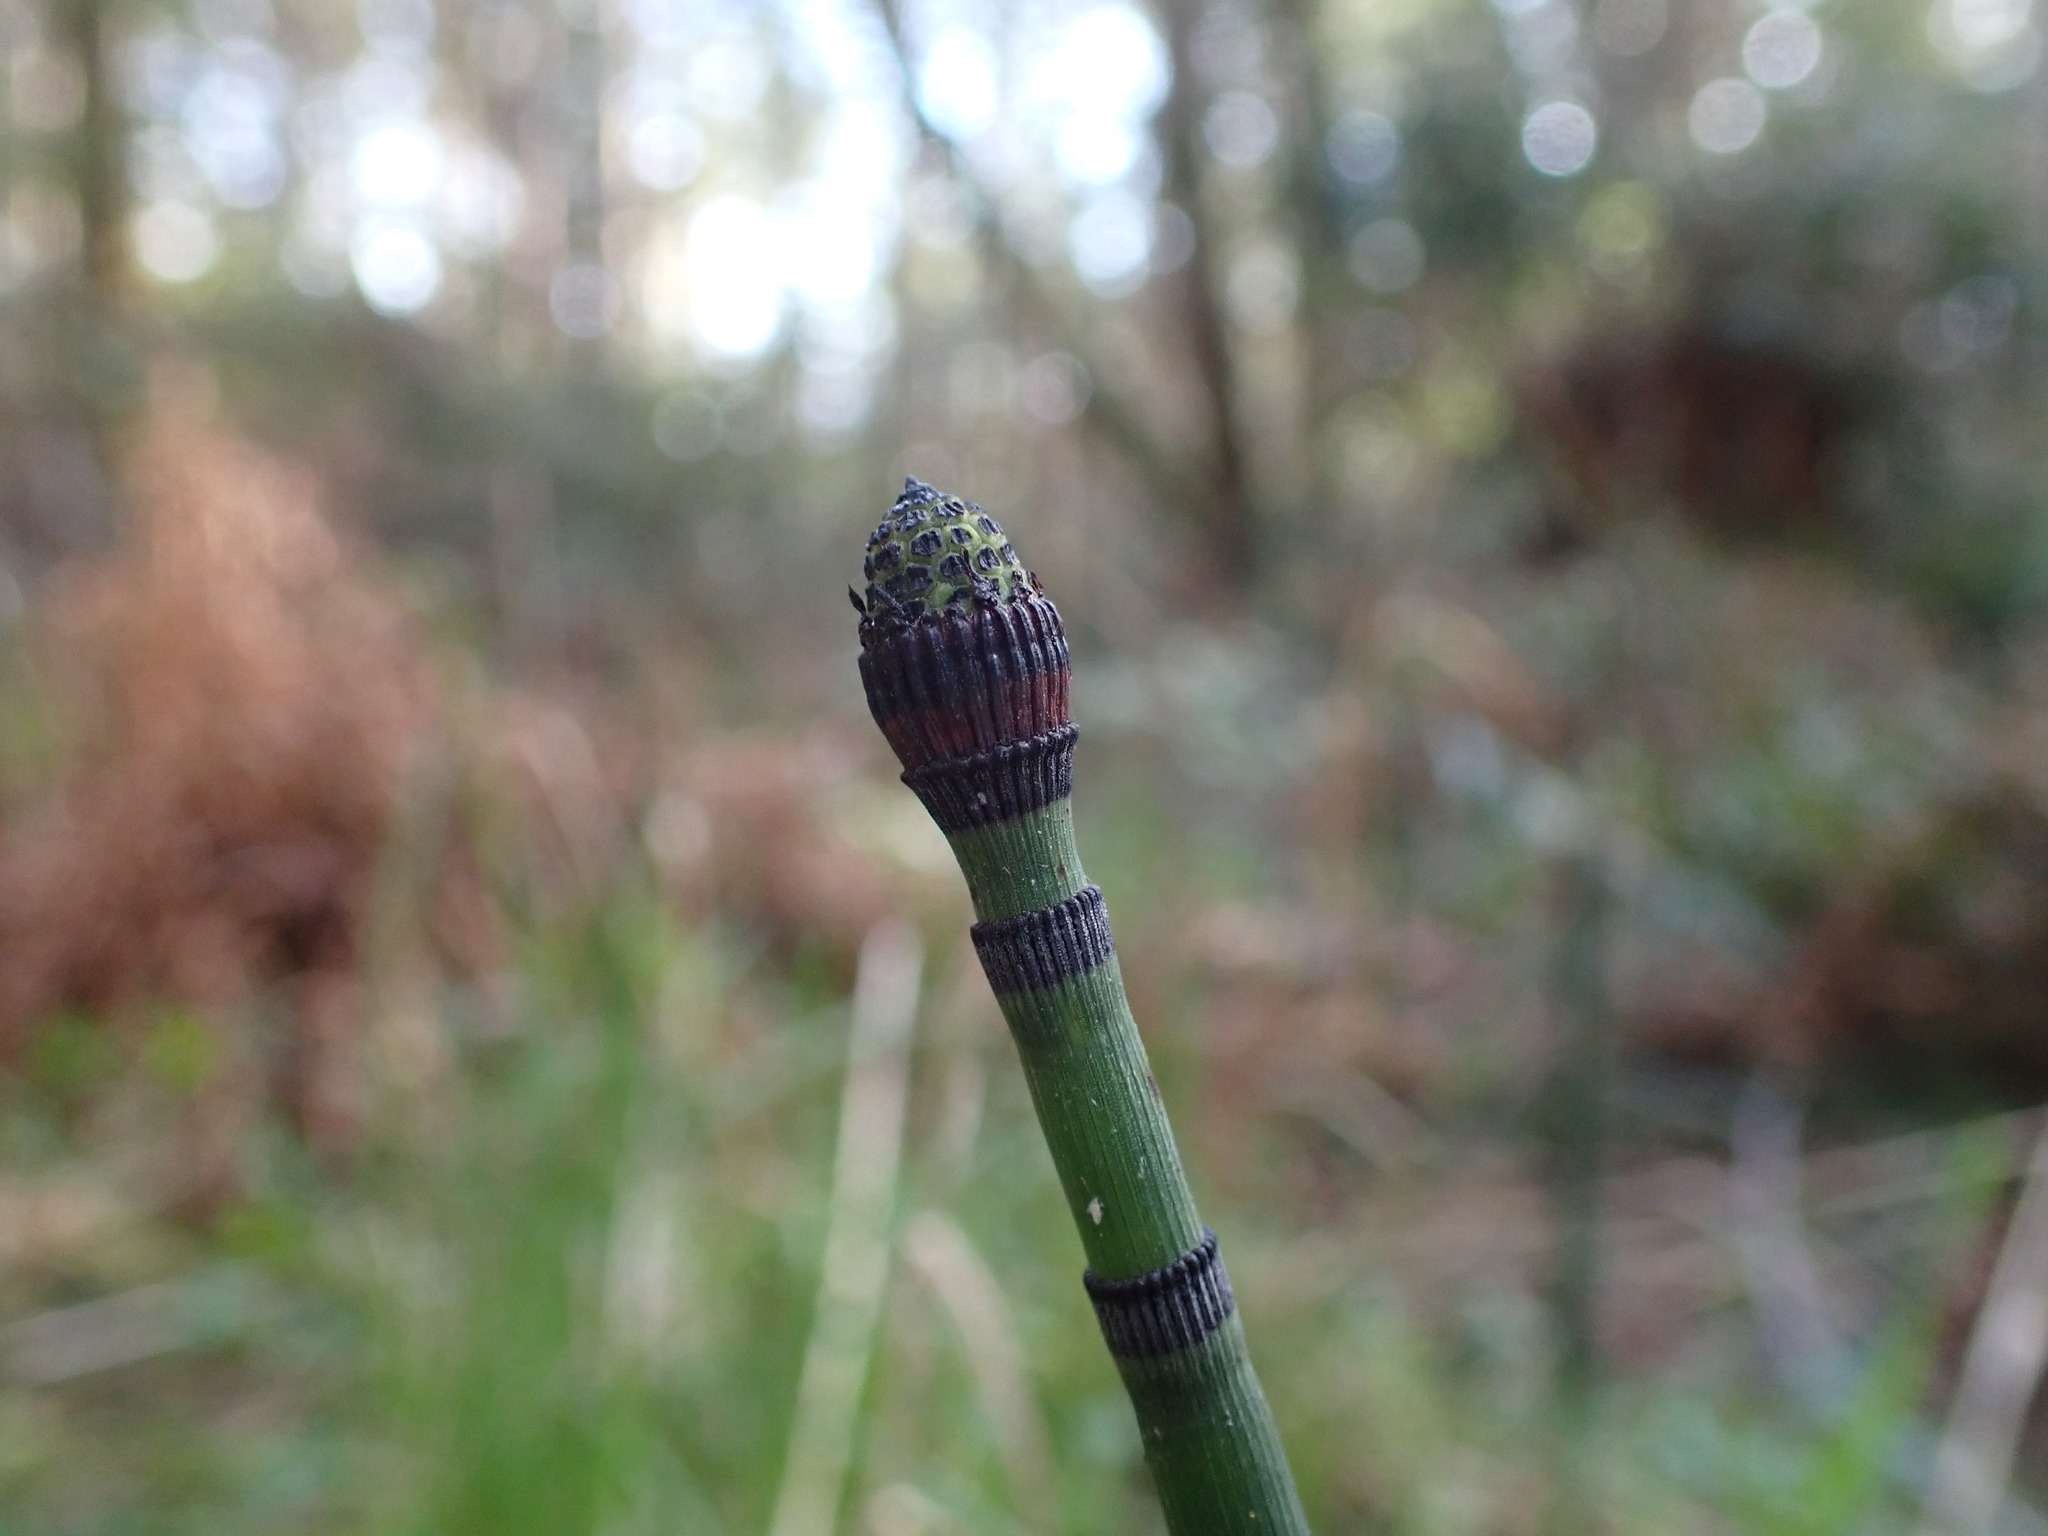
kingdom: Plantae
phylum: Tracheophyta
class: Polypodiopsida
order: Equisetales
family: Equisetaceae
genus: Equisetum
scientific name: Equisetum praealtum
